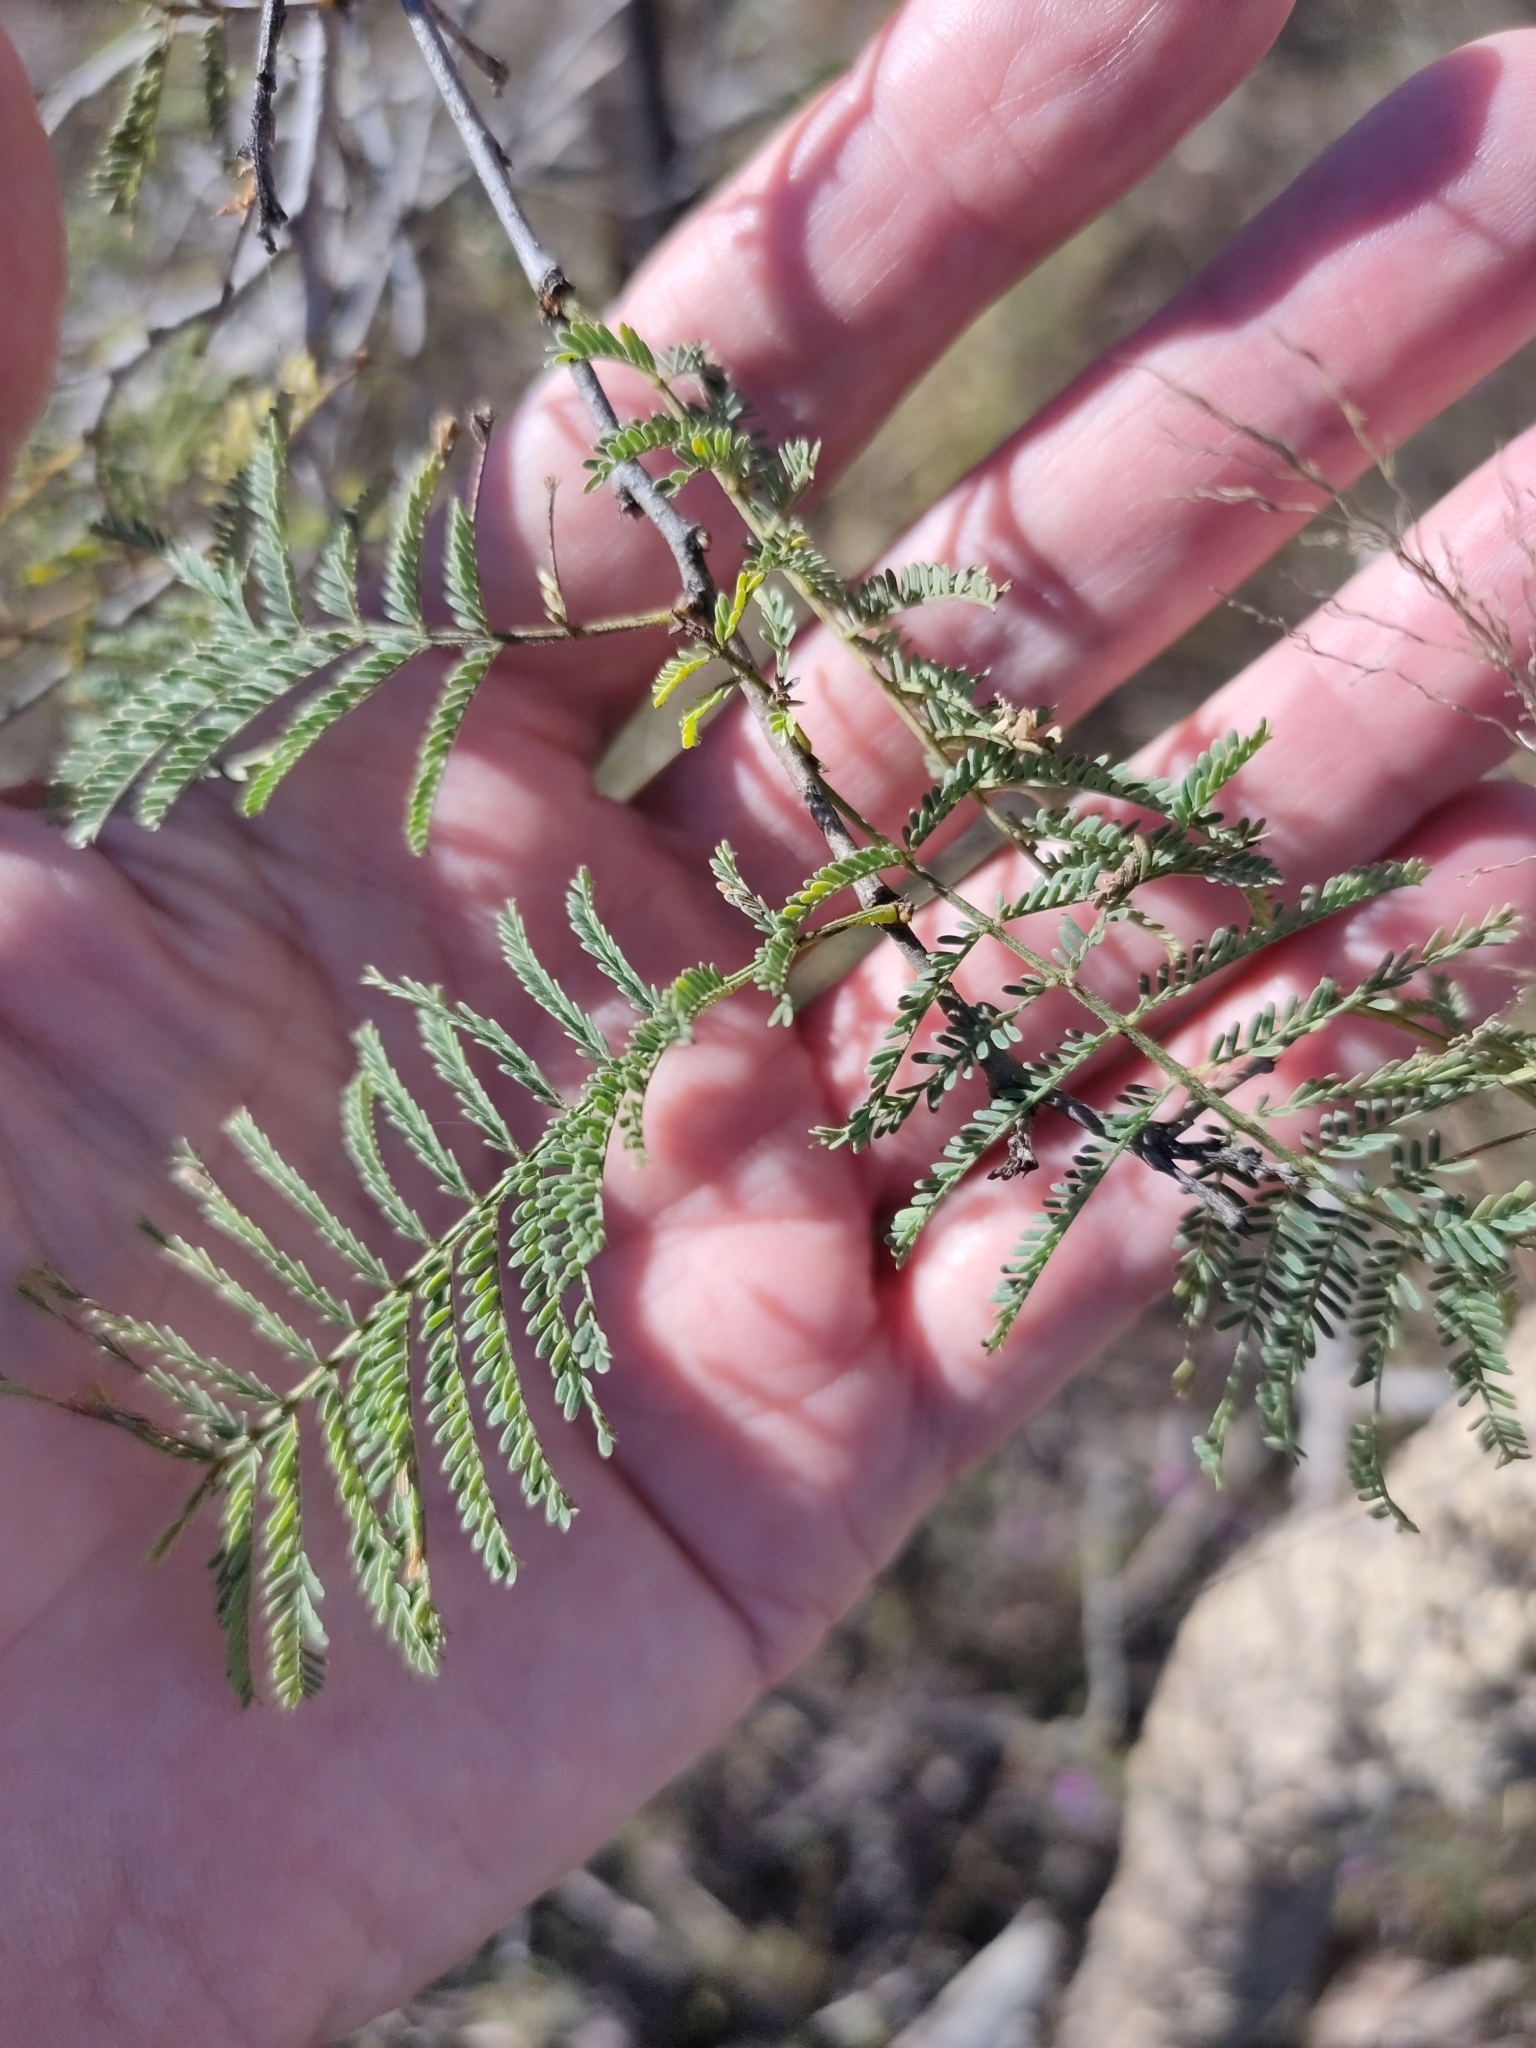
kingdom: Plantae
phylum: Tracheophyta
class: Magnoliopsida
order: Fabales
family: Fabaceae
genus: Vachellia
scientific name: Vachellia bidwillii
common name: Corkwood wattle
